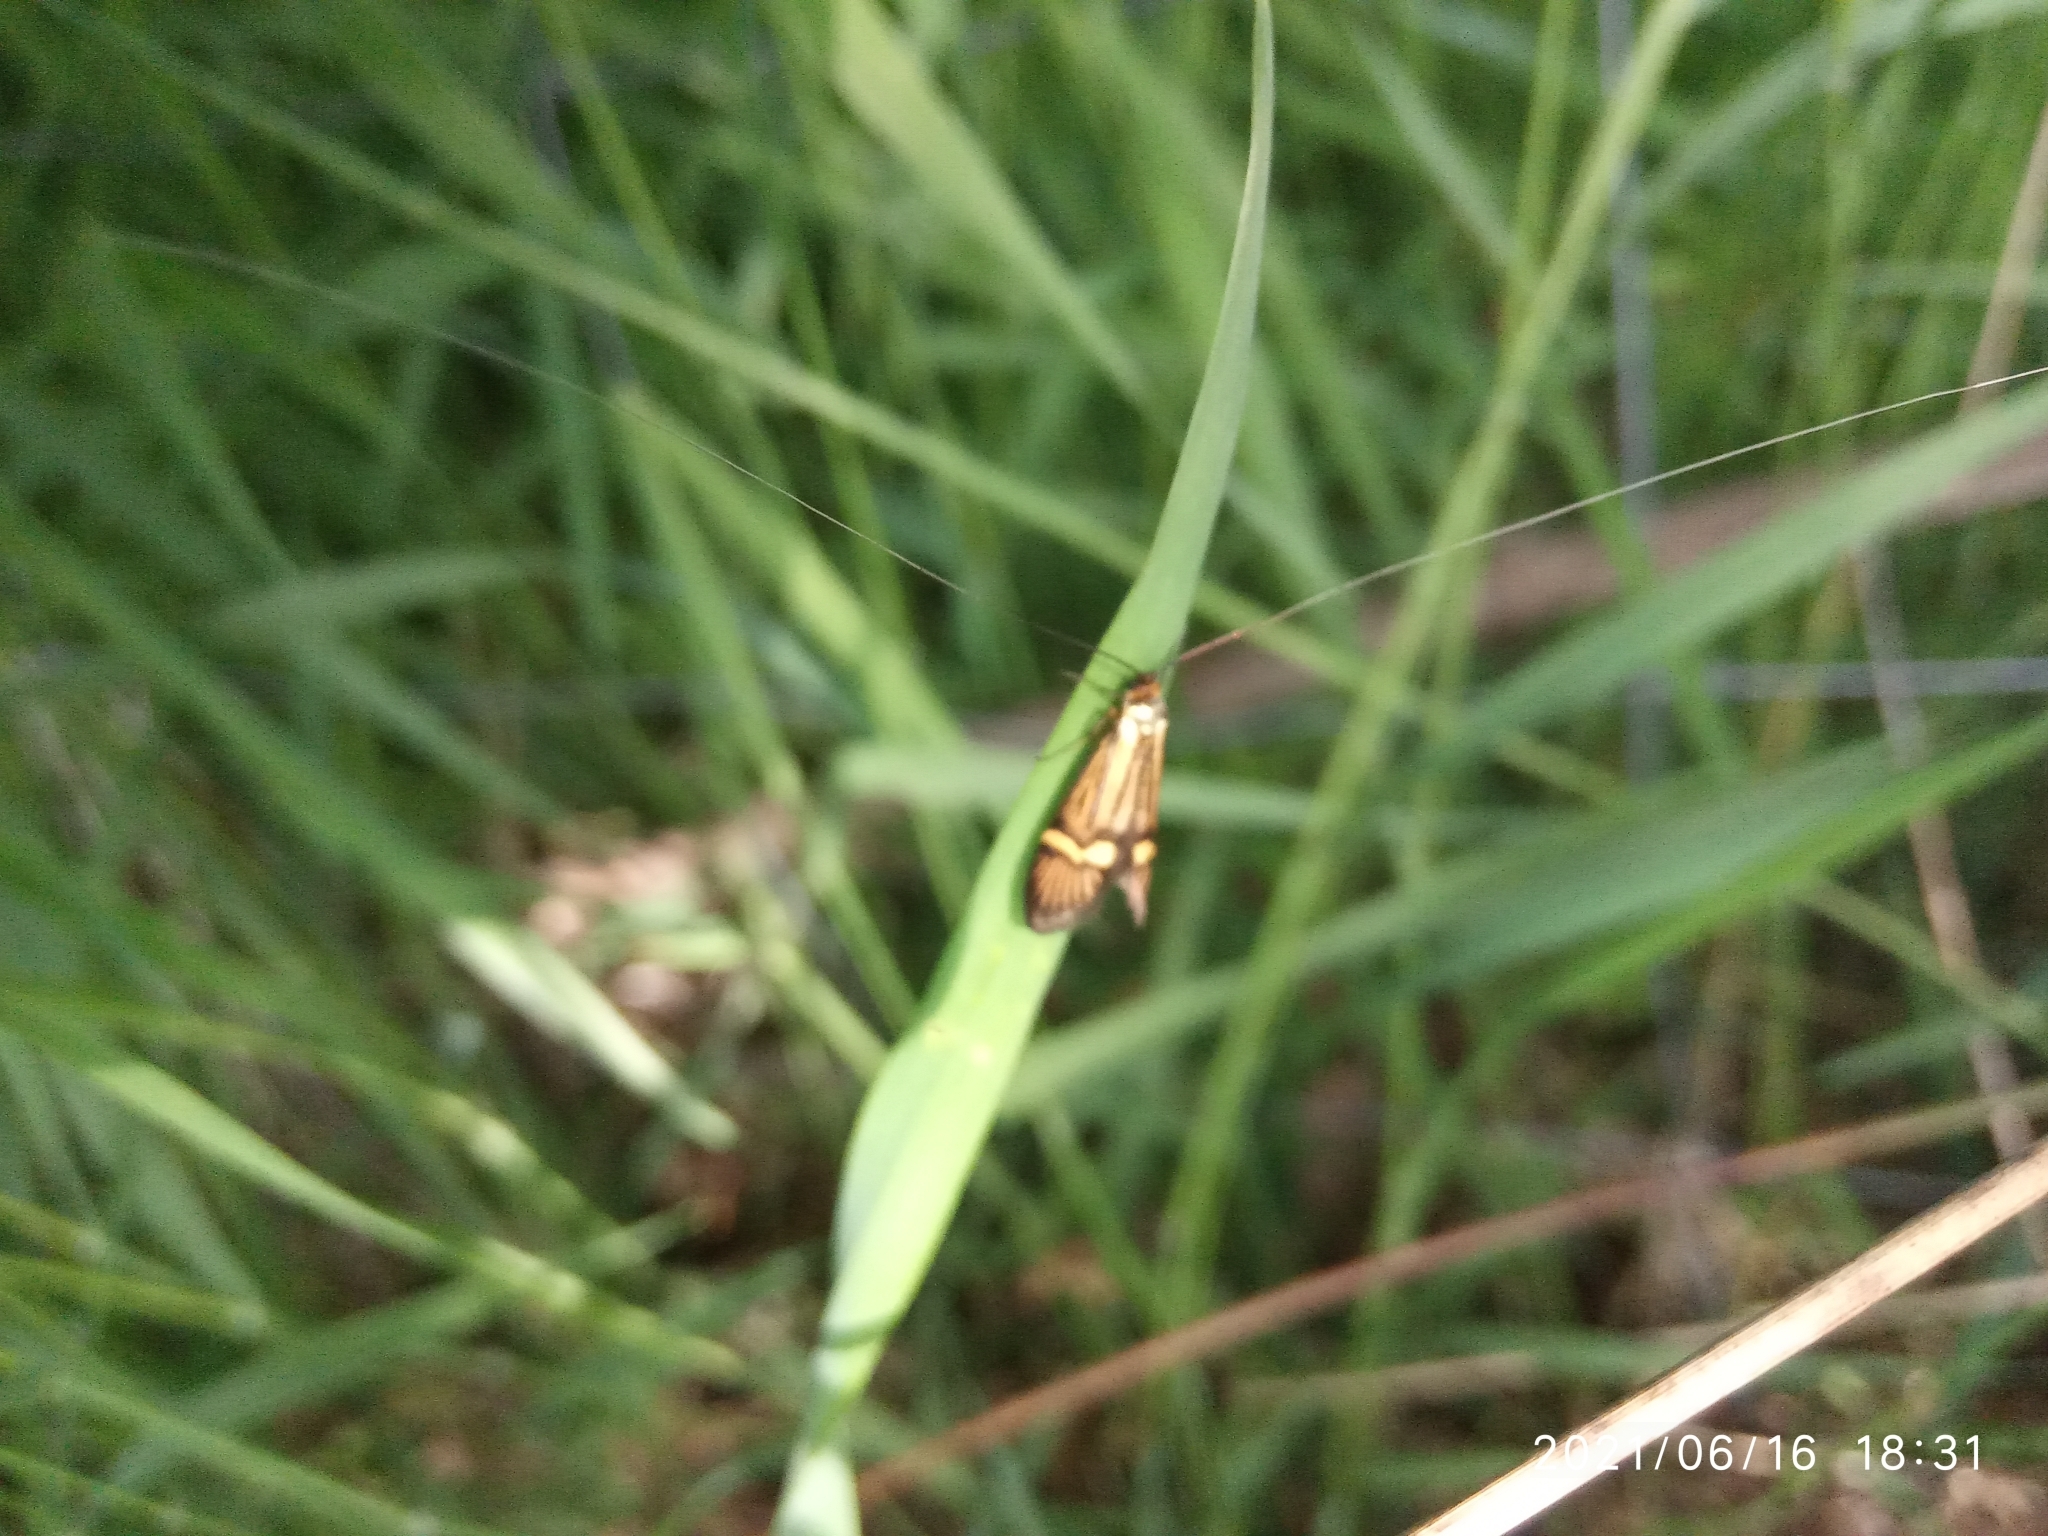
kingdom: Animalia
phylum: Arthropoda
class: Insecta
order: Lepidoptera
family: Adelidae
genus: Nemophora
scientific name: Nemophora degeerella
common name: Yellow-barred long-horn
